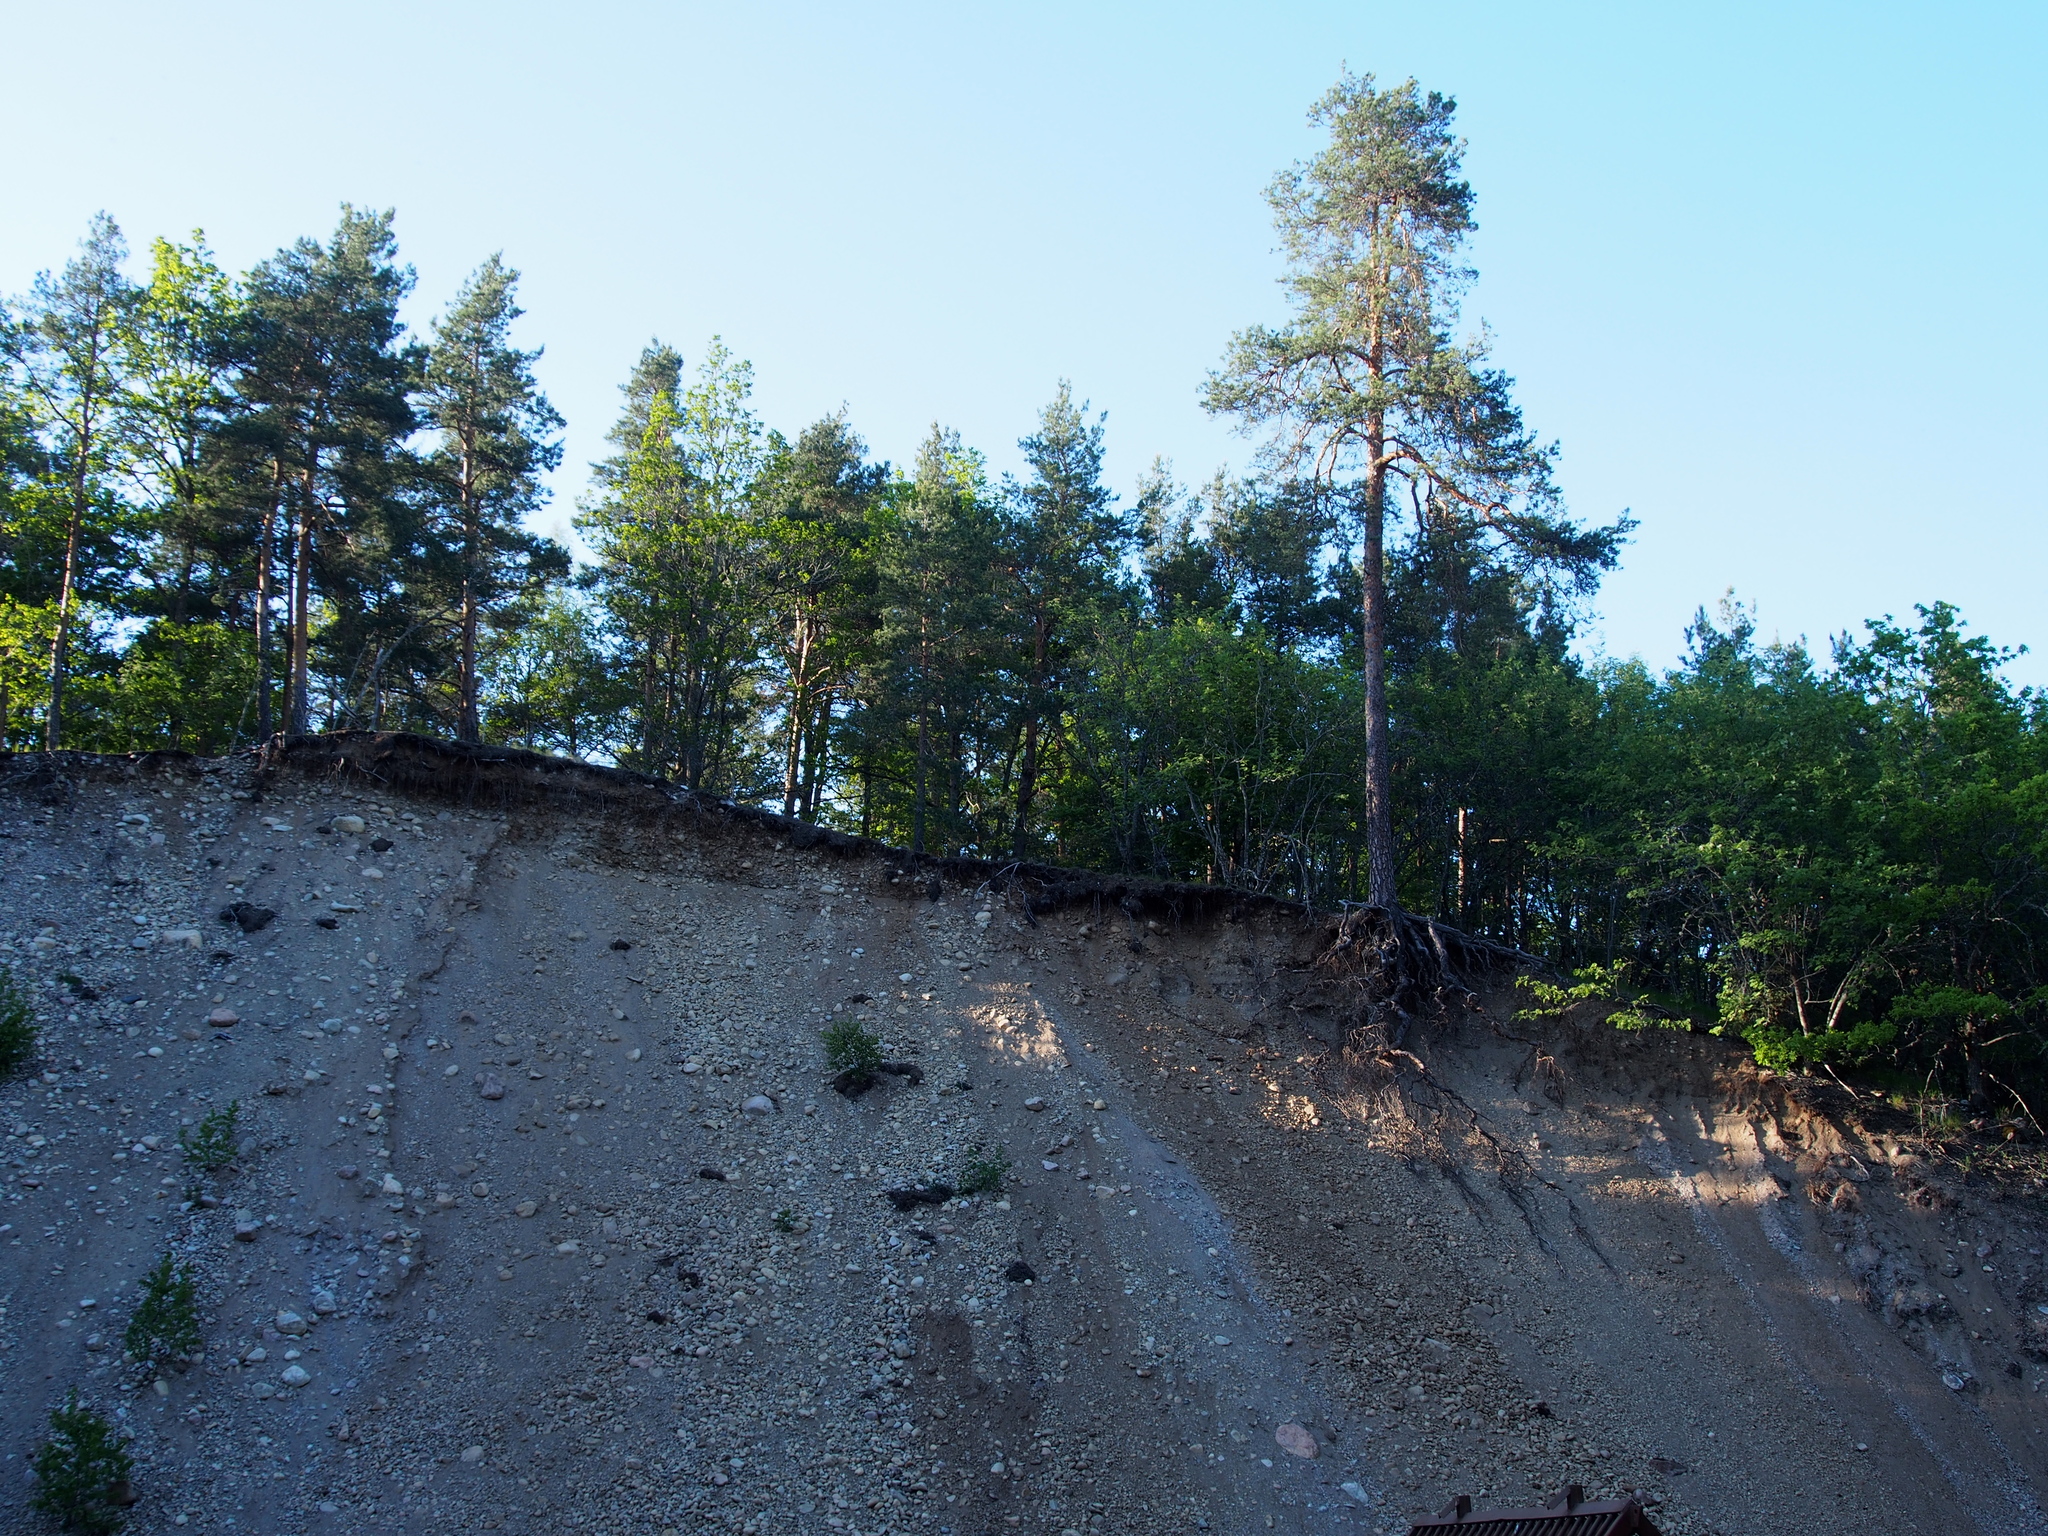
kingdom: Plantae
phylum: Tracheophyta
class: Pinopsida
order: Pinales
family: Pinaceae
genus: Pinus
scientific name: Pinus sylvestris
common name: Scots pine
